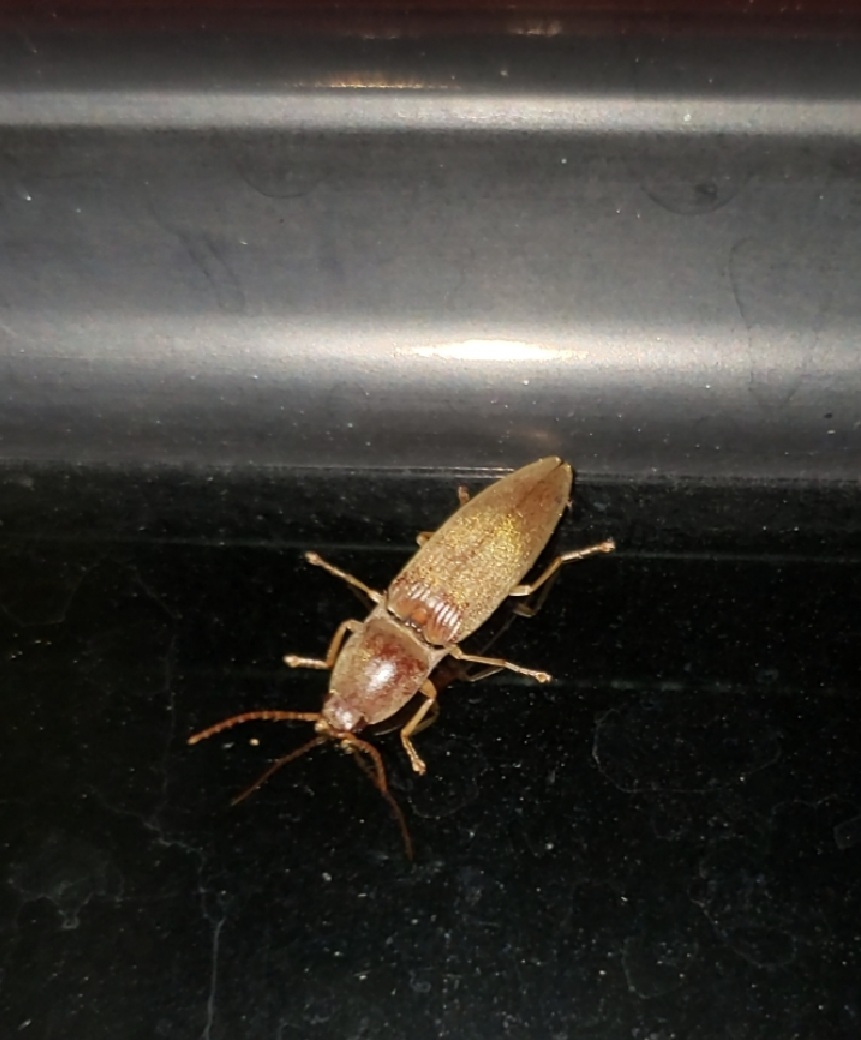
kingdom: Animalia
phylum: Arthropoda
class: Insecta
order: Coleoptera
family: Elateridae
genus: Monocrepidius
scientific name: Monocrepidius lividus
